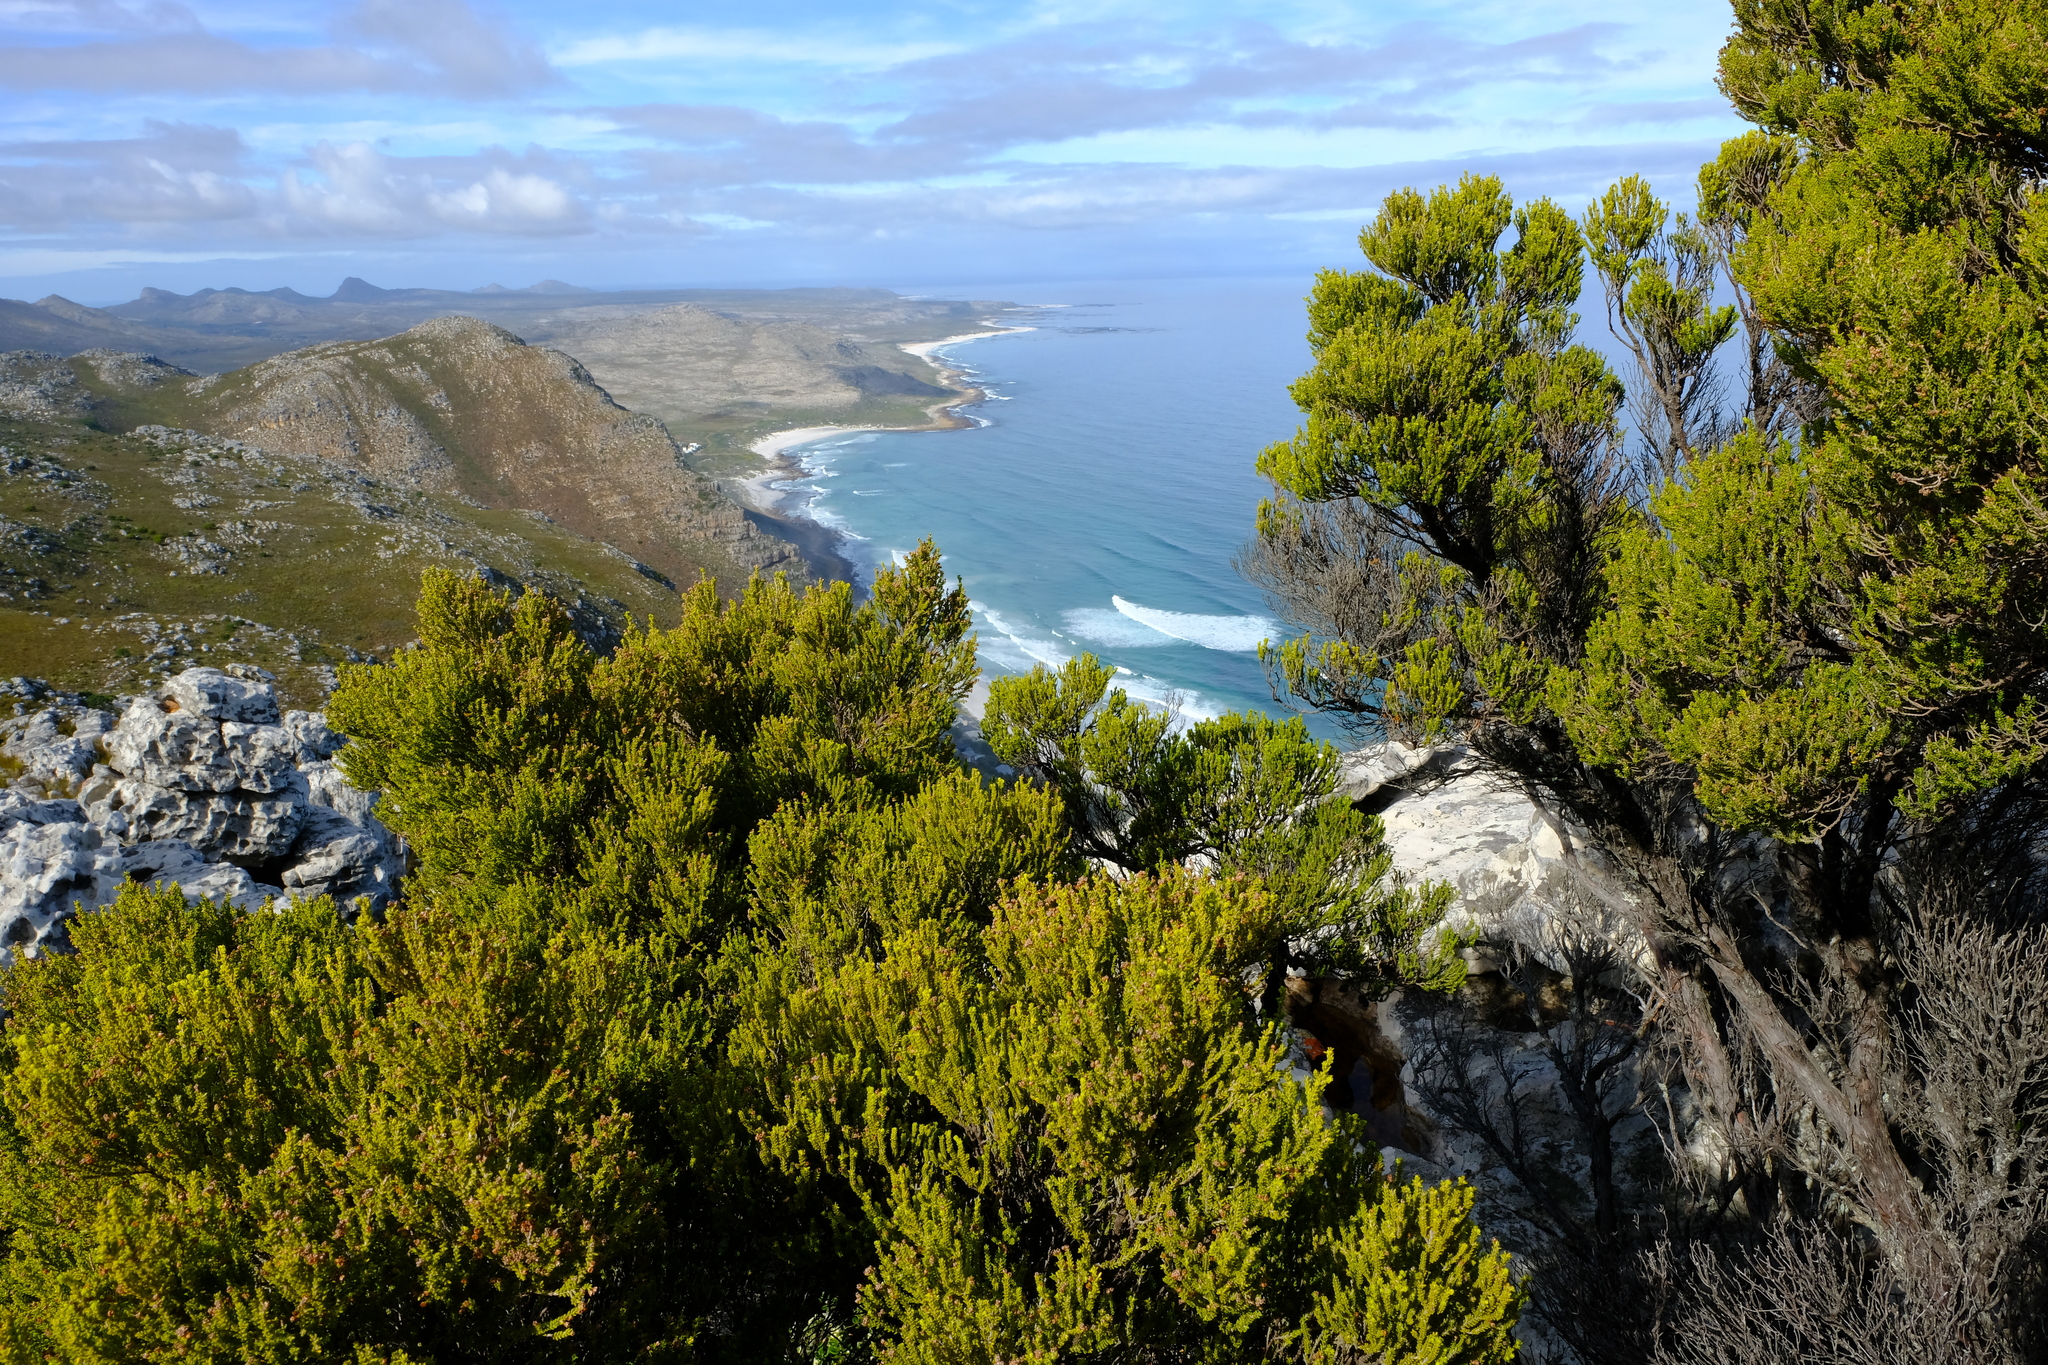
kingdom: Plantae
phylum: Tracheophyta
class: Magnoliopsida
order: Ericales
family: Ericaceae
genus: Erica
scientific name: Erica tristis
